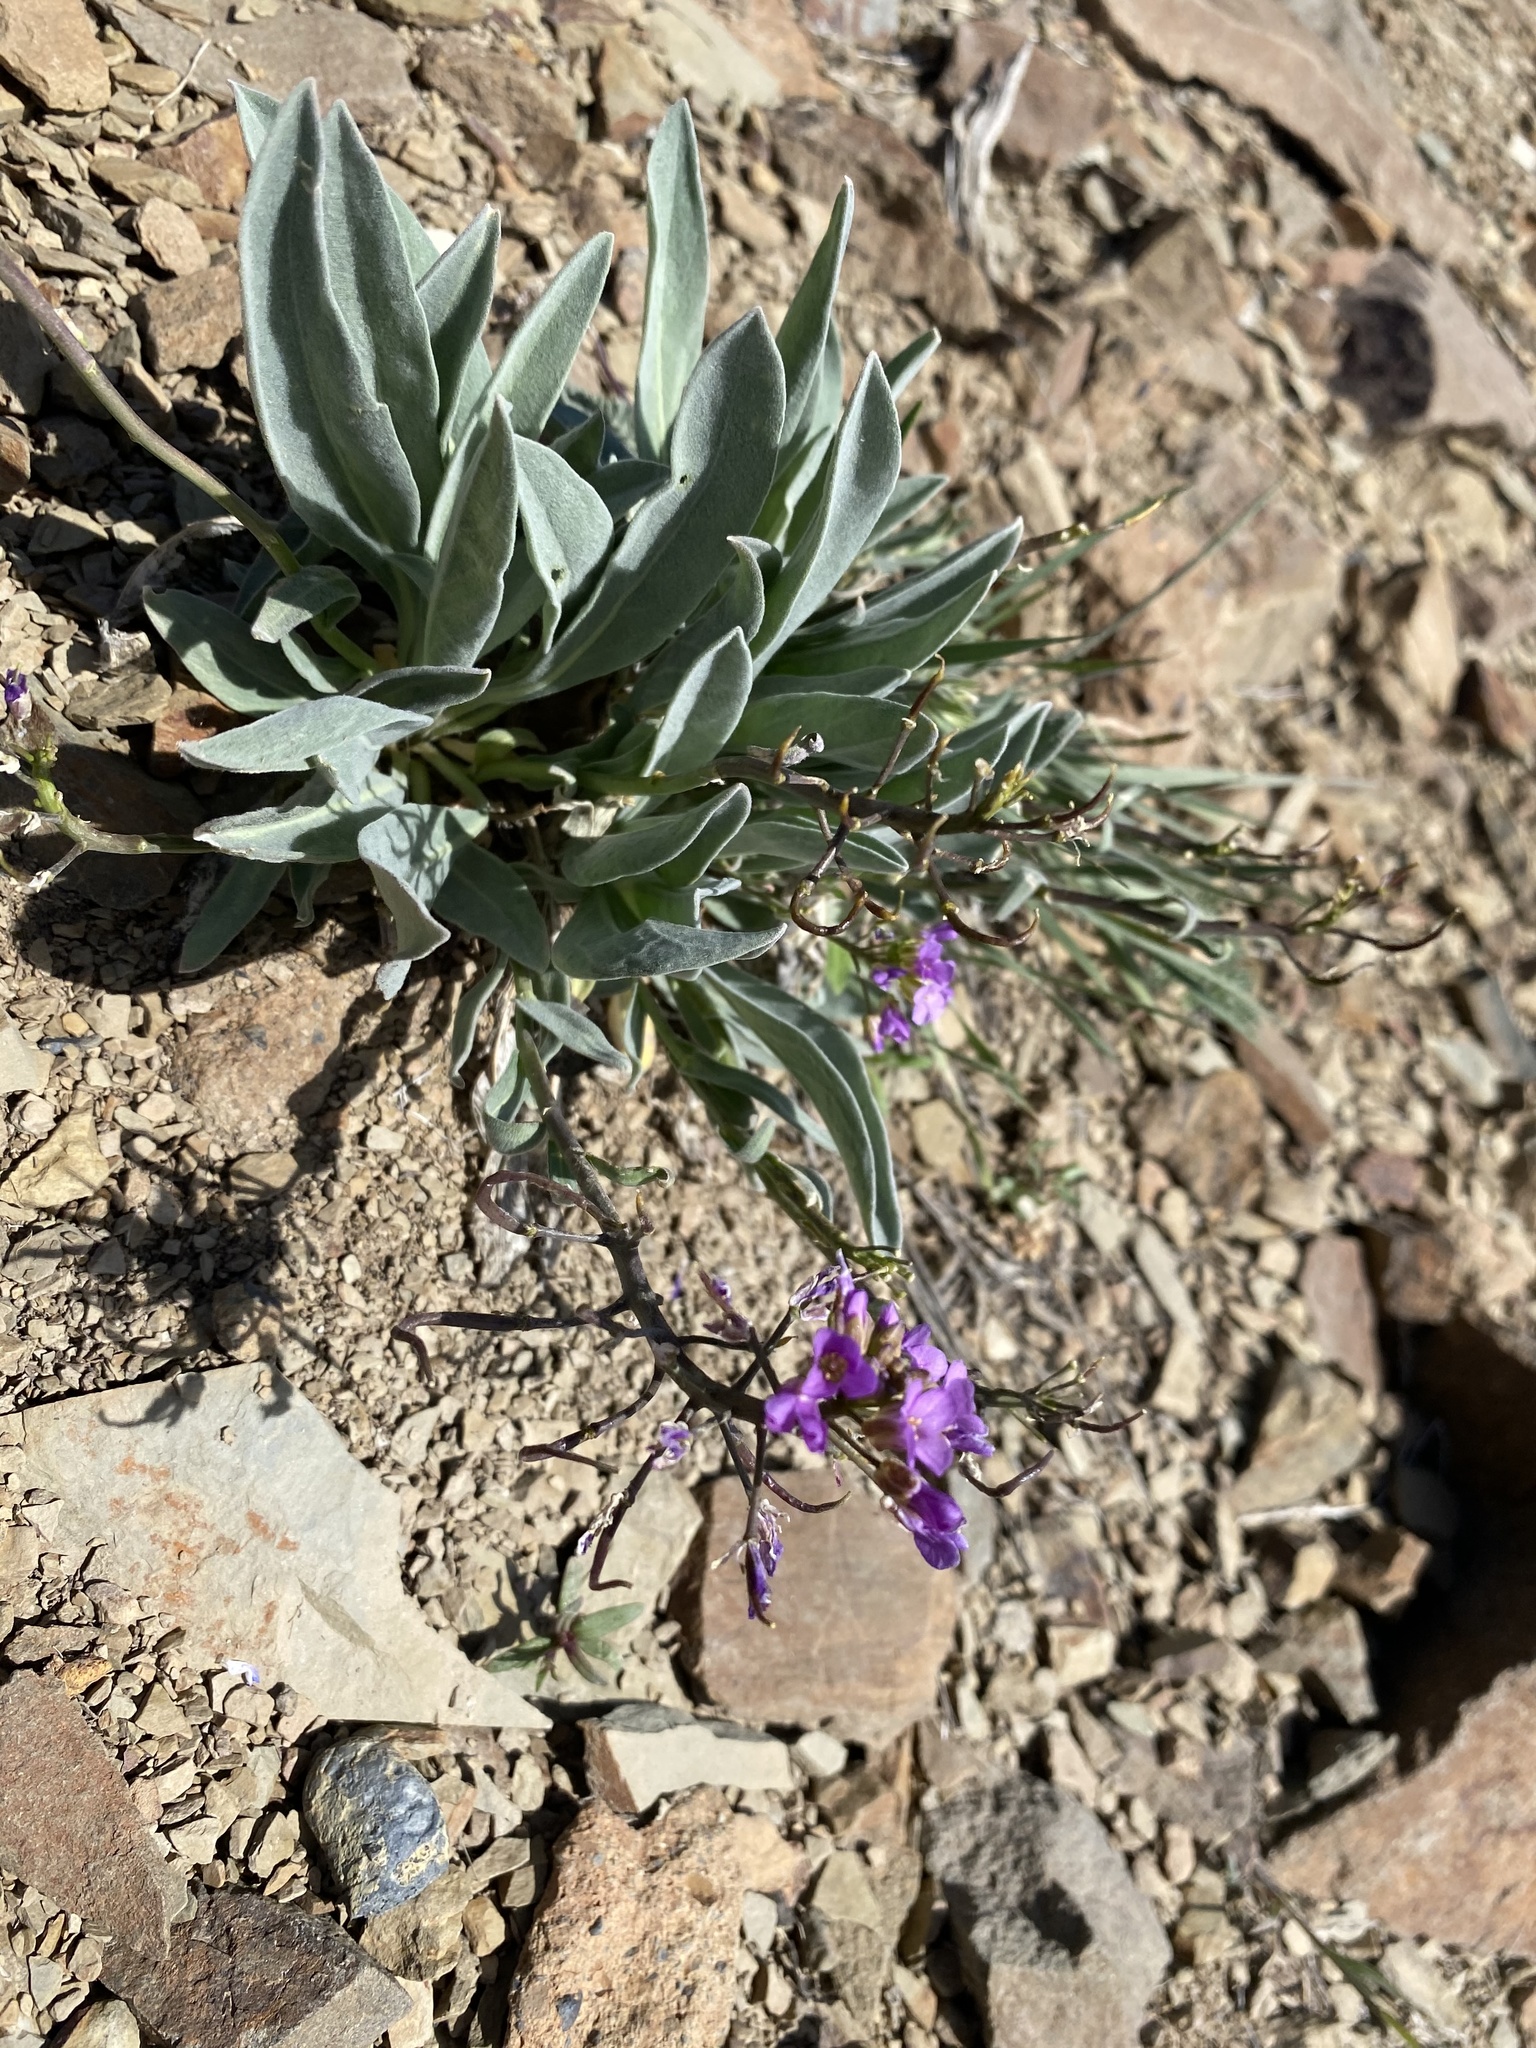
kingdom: Plantae
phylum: Tracheophyta
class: Magnoliopsida
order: Brassicales
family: Brassicaceae
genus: Phoenicaulis
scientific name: Phoenicaulis cheiranthoides
